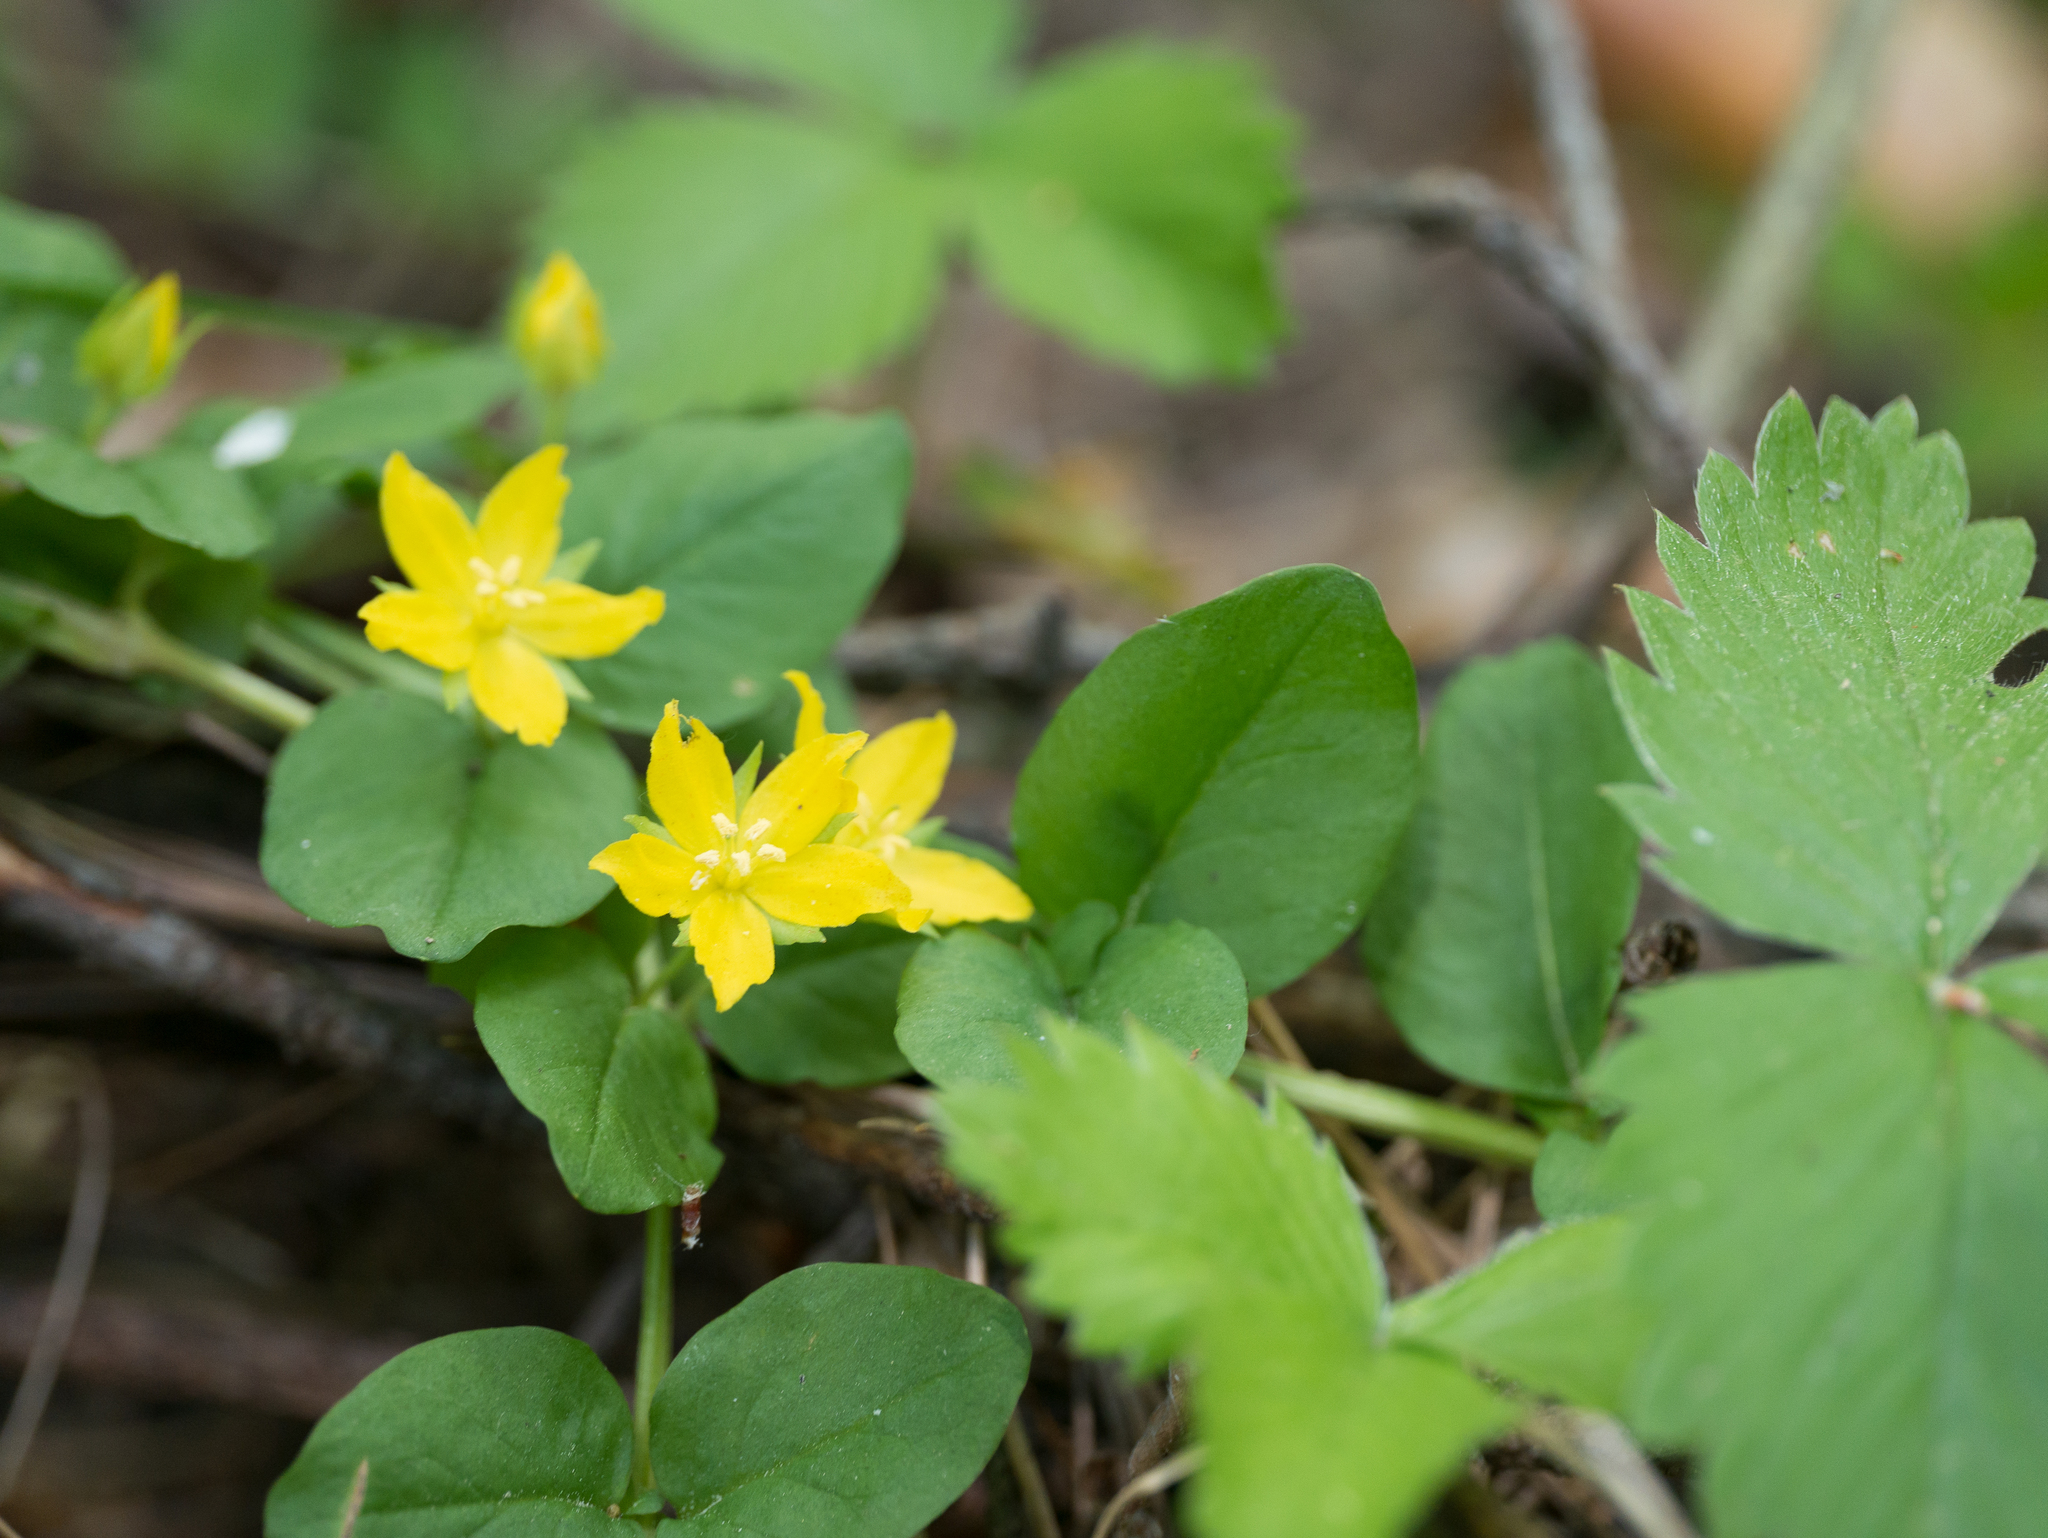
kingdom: Plantae
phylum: Tracheophyta
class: Magnoliopsida
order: Ericales
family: Primulaceae
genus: Lysimachia
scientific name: Lysimachia nummularia
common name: Moneywort
